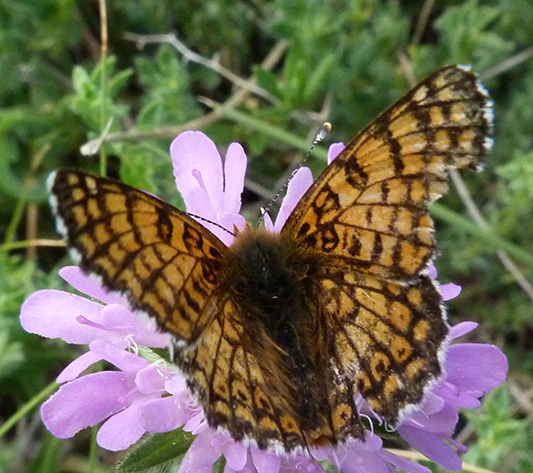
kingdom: Animalia
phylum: Arthropoda
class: Insecta
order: Lepidoptera
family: Nymphalidae
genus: Melitaea
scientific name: Melitaea cinxia
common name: Glanville fritillary
